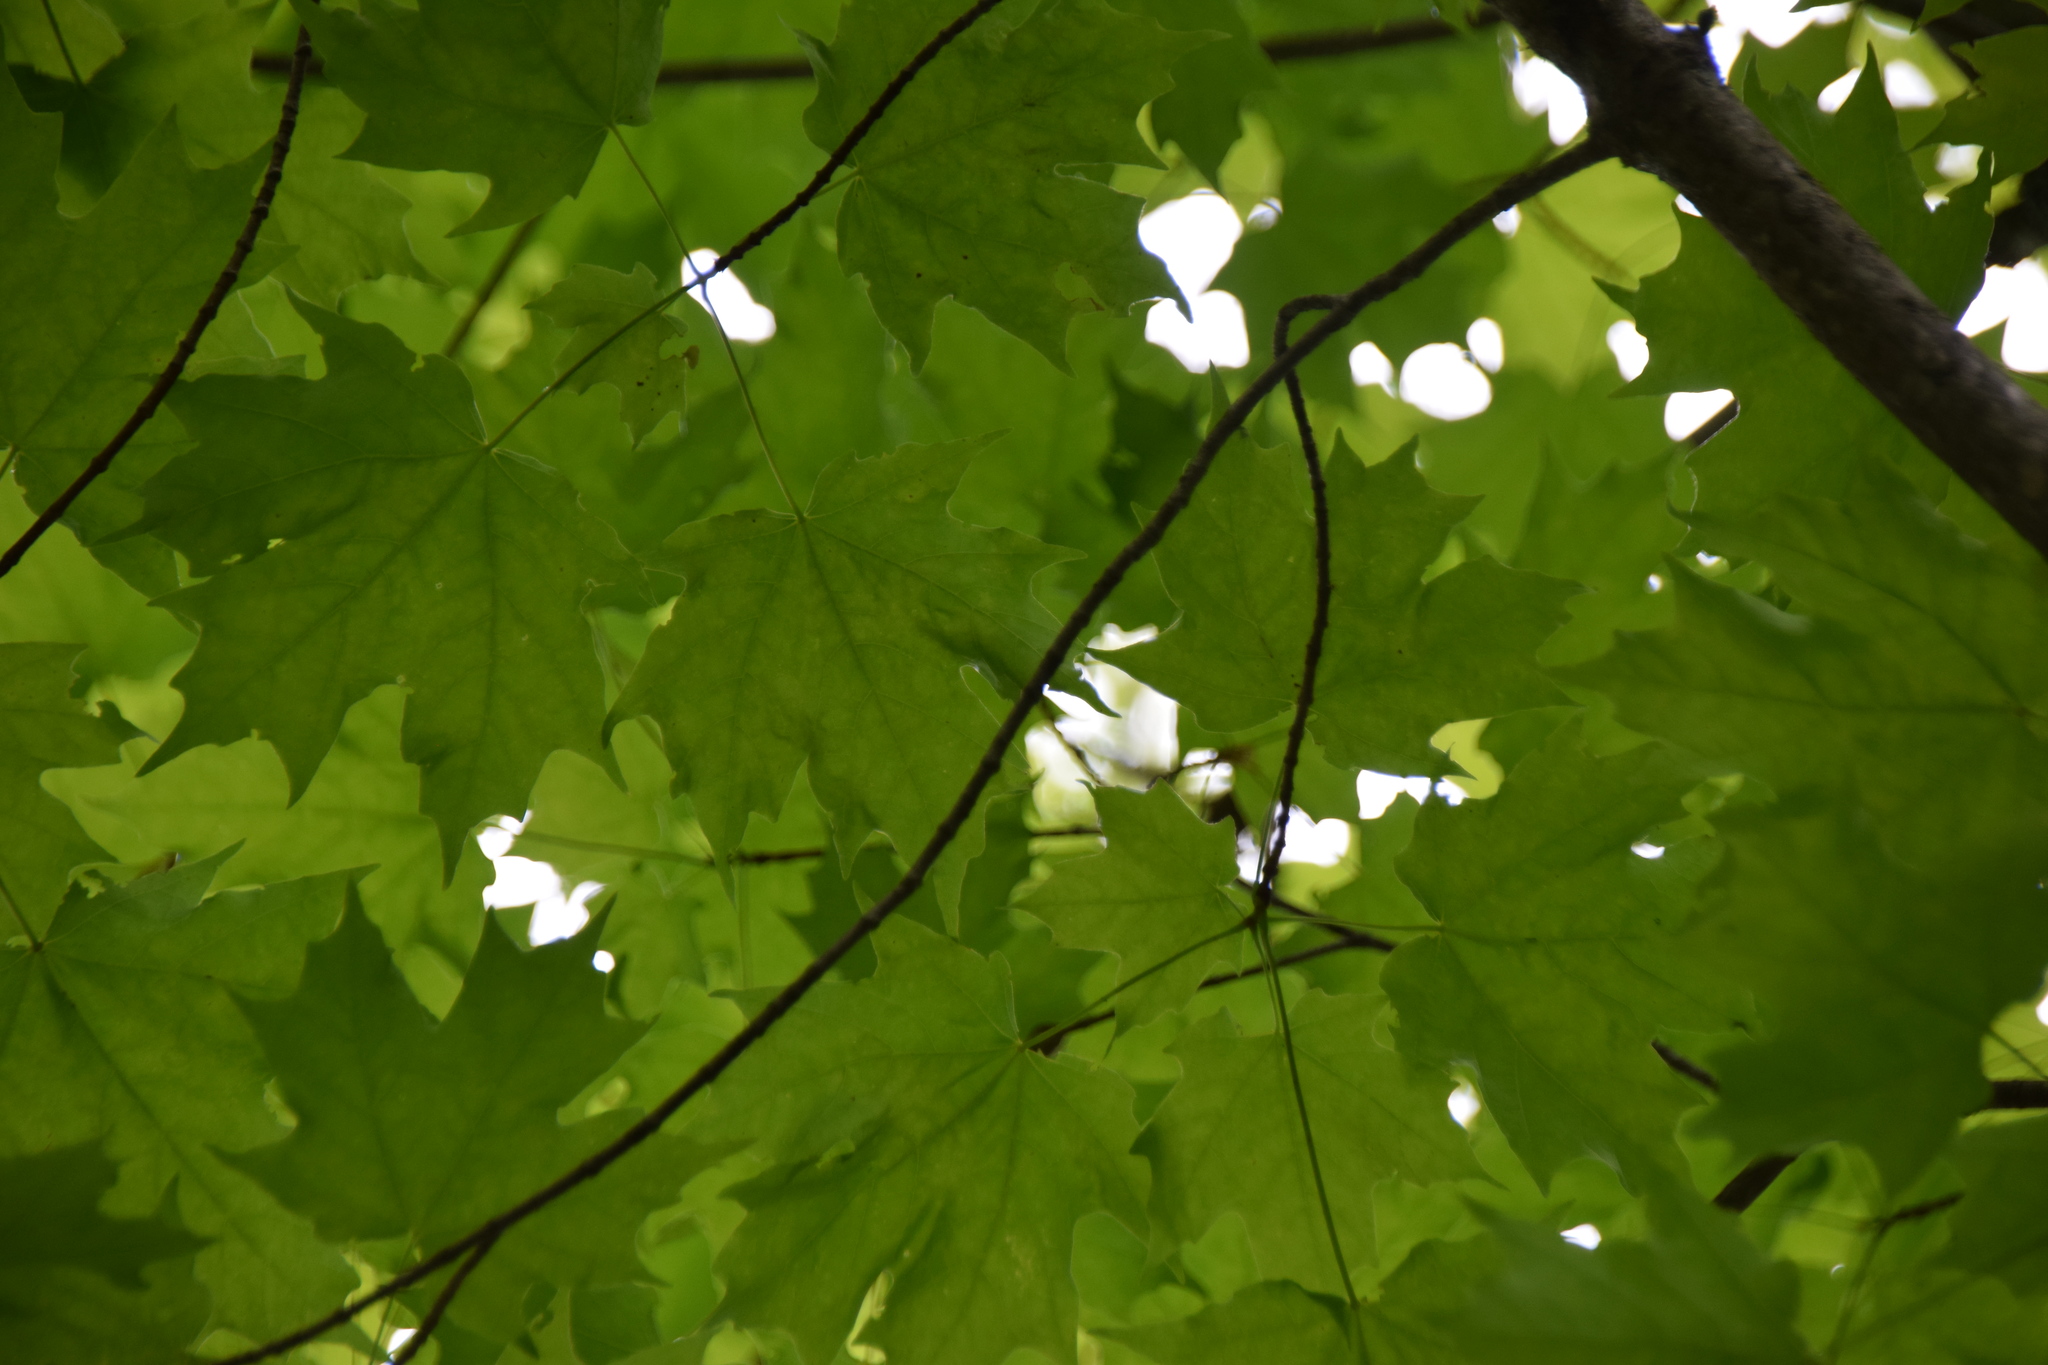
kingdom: Plantae
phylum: Tracheophyta
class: Magnoliopsida
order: Sapindales
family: Sapindaceae
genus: Acer
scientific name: Acer saccharum
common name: Sugar maple
